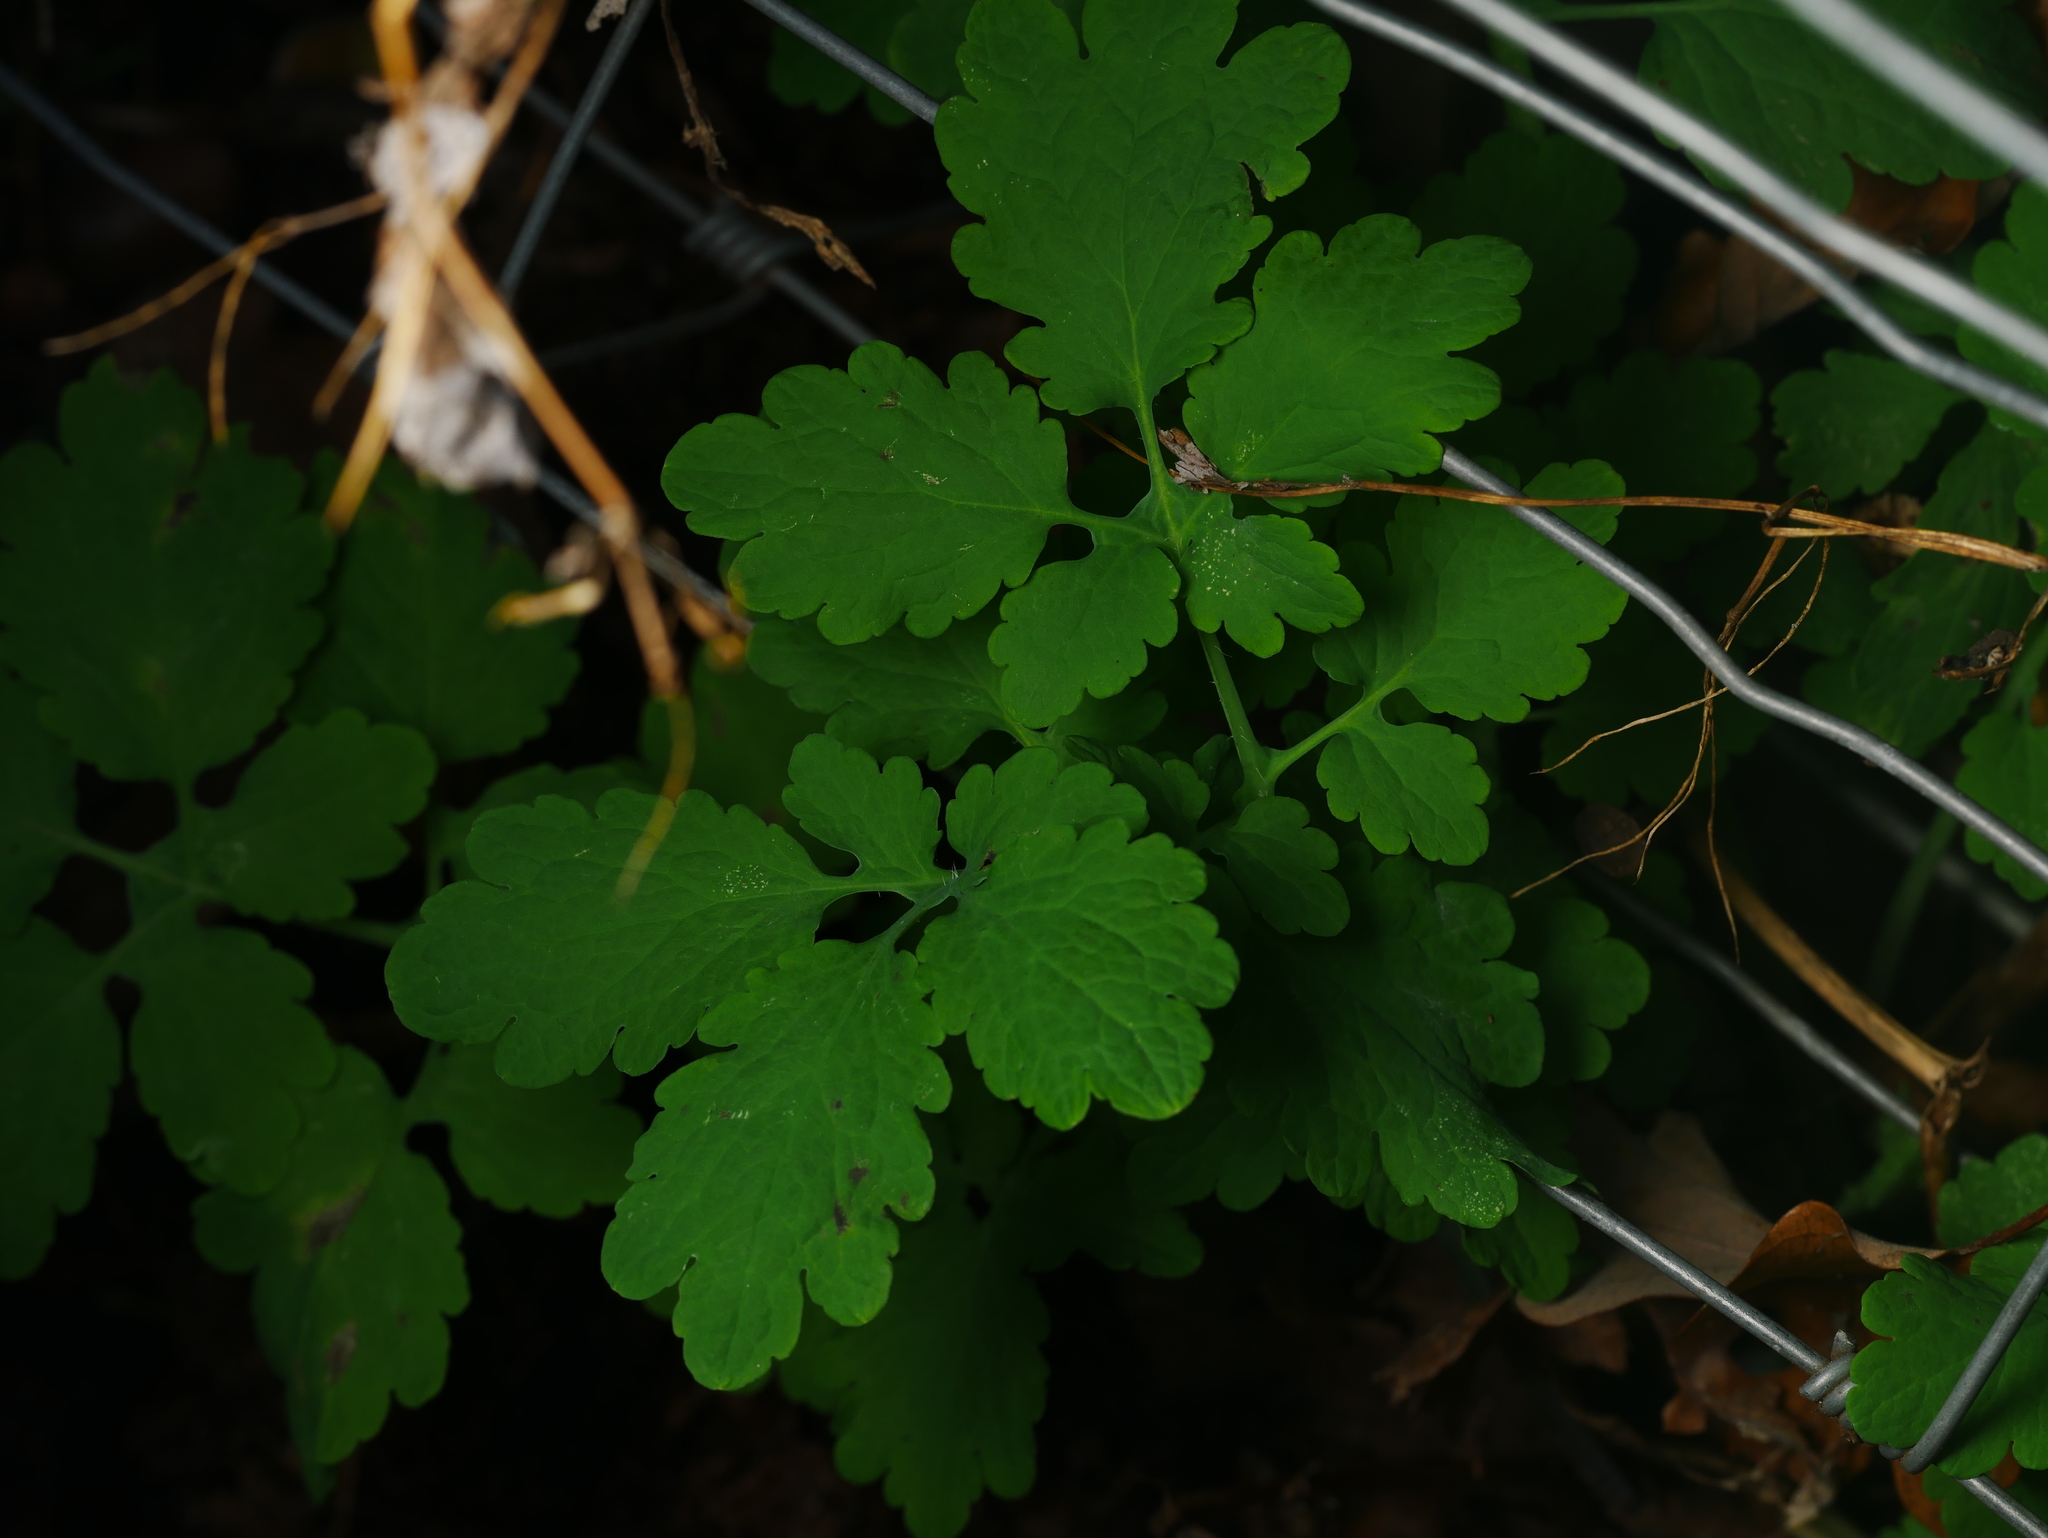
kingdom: Plantae
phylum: Tracheophyta
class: Magnoliopsida
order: Ranunculales
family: Papaveraceae
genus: Chelidonium
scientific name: Chelidonium majus
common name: Greater celandine
